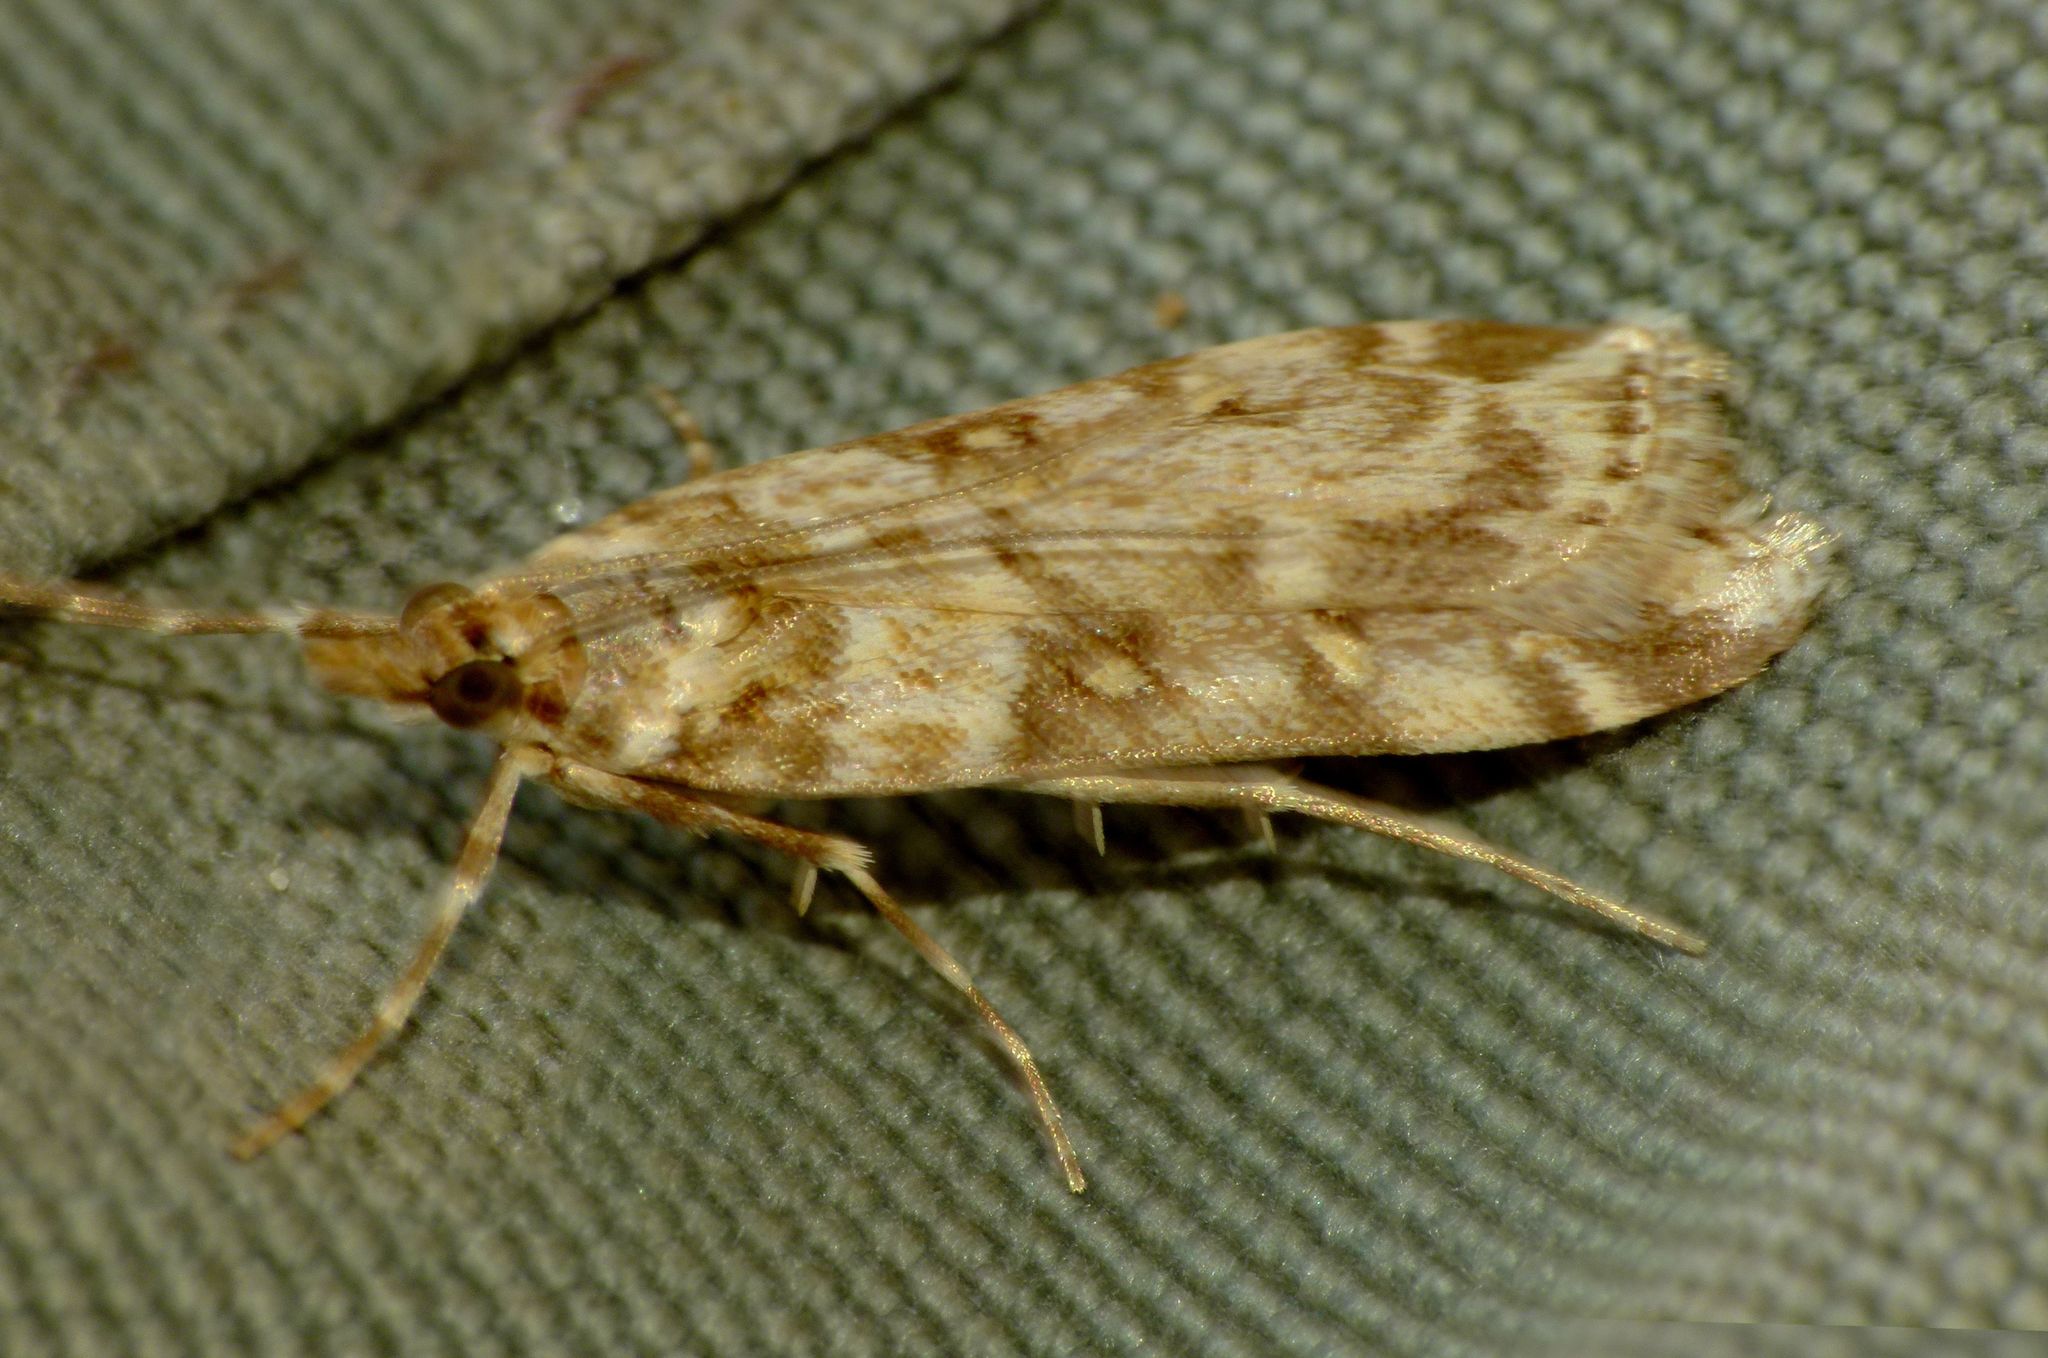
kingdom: Animalia
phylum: Arthropoda
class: Insecta
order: Lepidoptera
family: Crambidae
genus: Eudonia
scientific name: Eudonia diphtheralis
